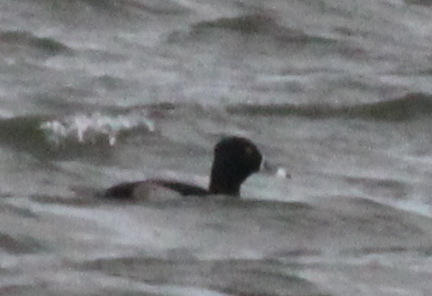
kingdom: Animalia
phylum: Chordata
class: Aves
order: Anseriformes
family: Anatidae
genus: Aythya
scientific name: Aythya collaris
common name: Ring-necked duck
